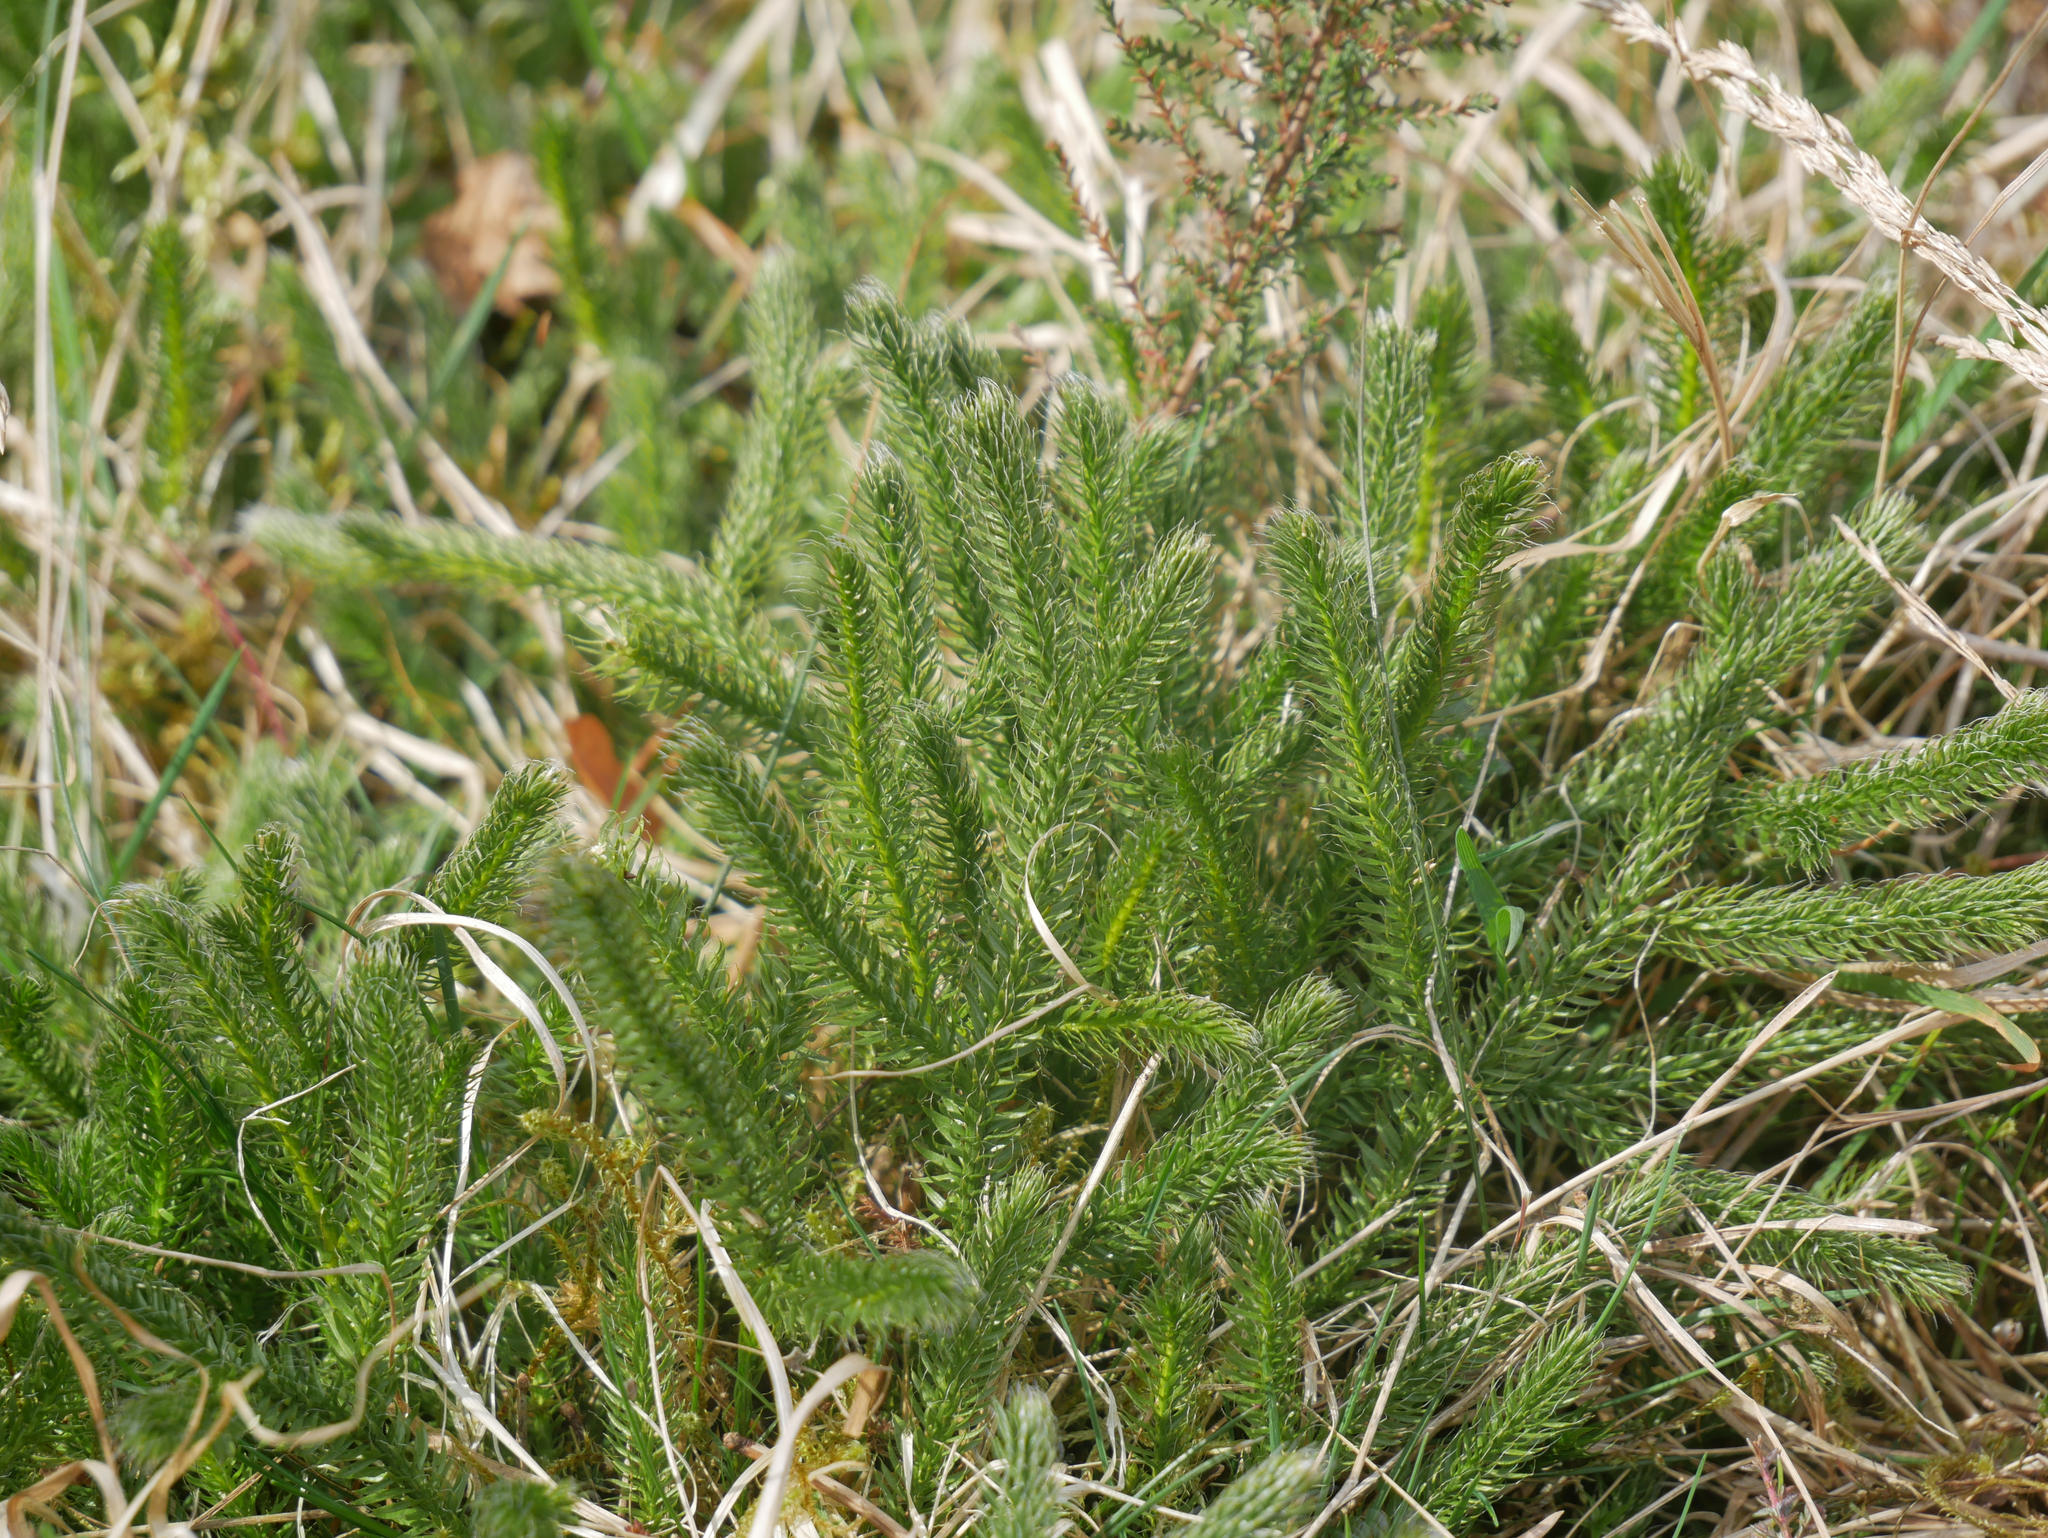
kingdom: Plantae
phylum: Tracheophyta
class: Lycopodiopsida
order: Lycopodiales
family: Lycopodiaceae
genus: Lycopodium
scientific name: Lycopodium clavatum
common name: Stag's-horn clubmoss
